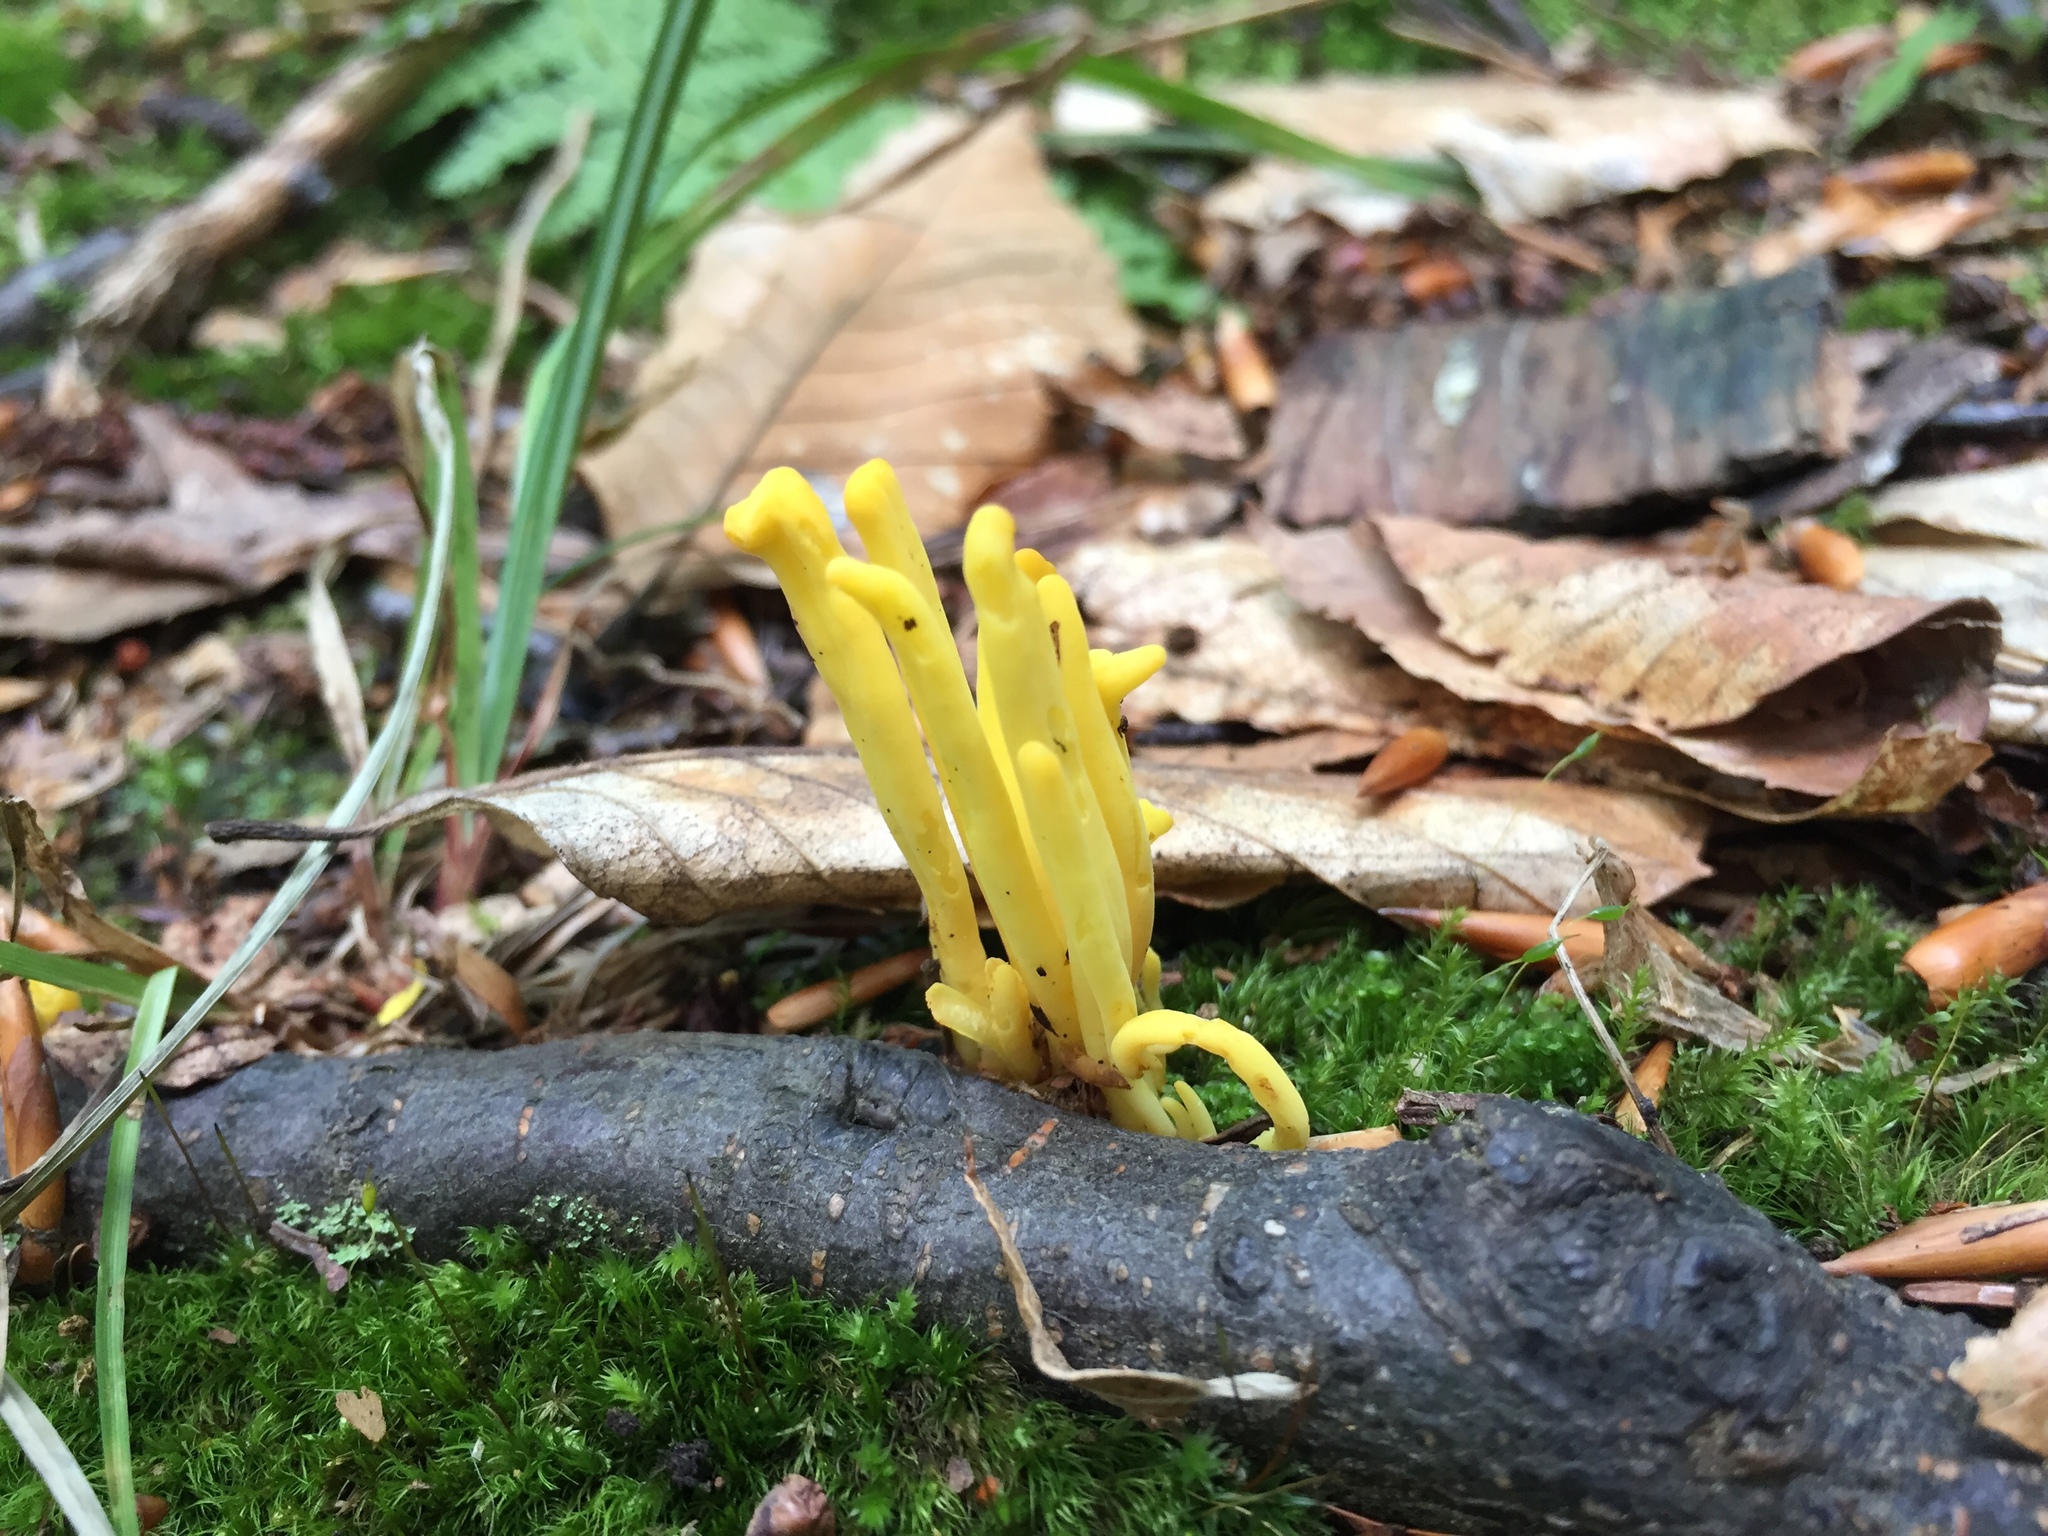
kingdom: Fungi
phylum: Basidiomycota
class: Agaricomycetes
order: Agaricales
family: Clavariaceae
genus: Clavulinopsis
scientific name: Clavulinopsis fusiformis
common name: Golden spindles
